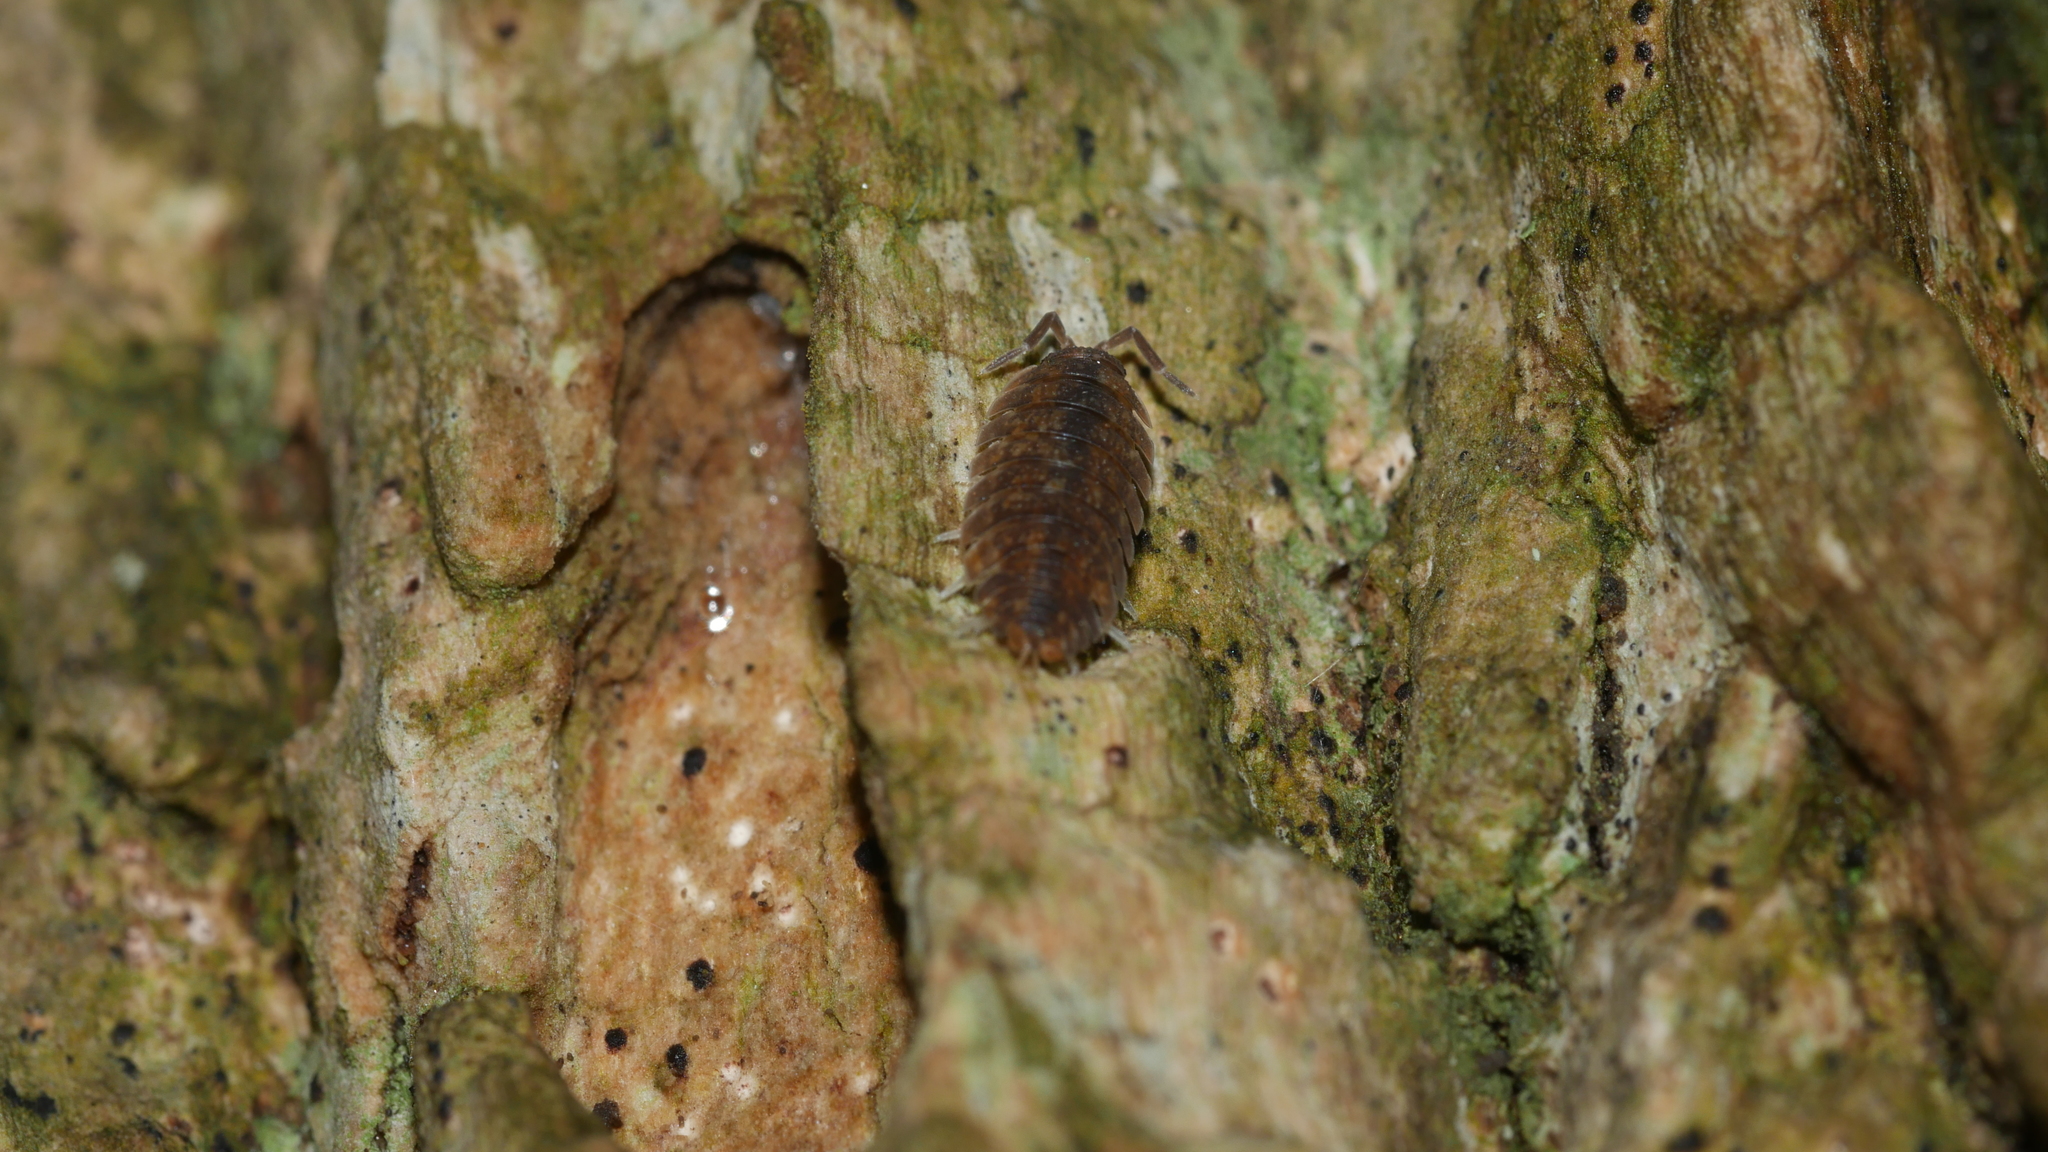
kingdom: Animalia
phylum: Arthropoda
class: Malacostraca
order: Isopoda
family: Porcellionidae
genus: Porcellio
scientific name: Porcellio scaber
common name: Common rough woodlouse
